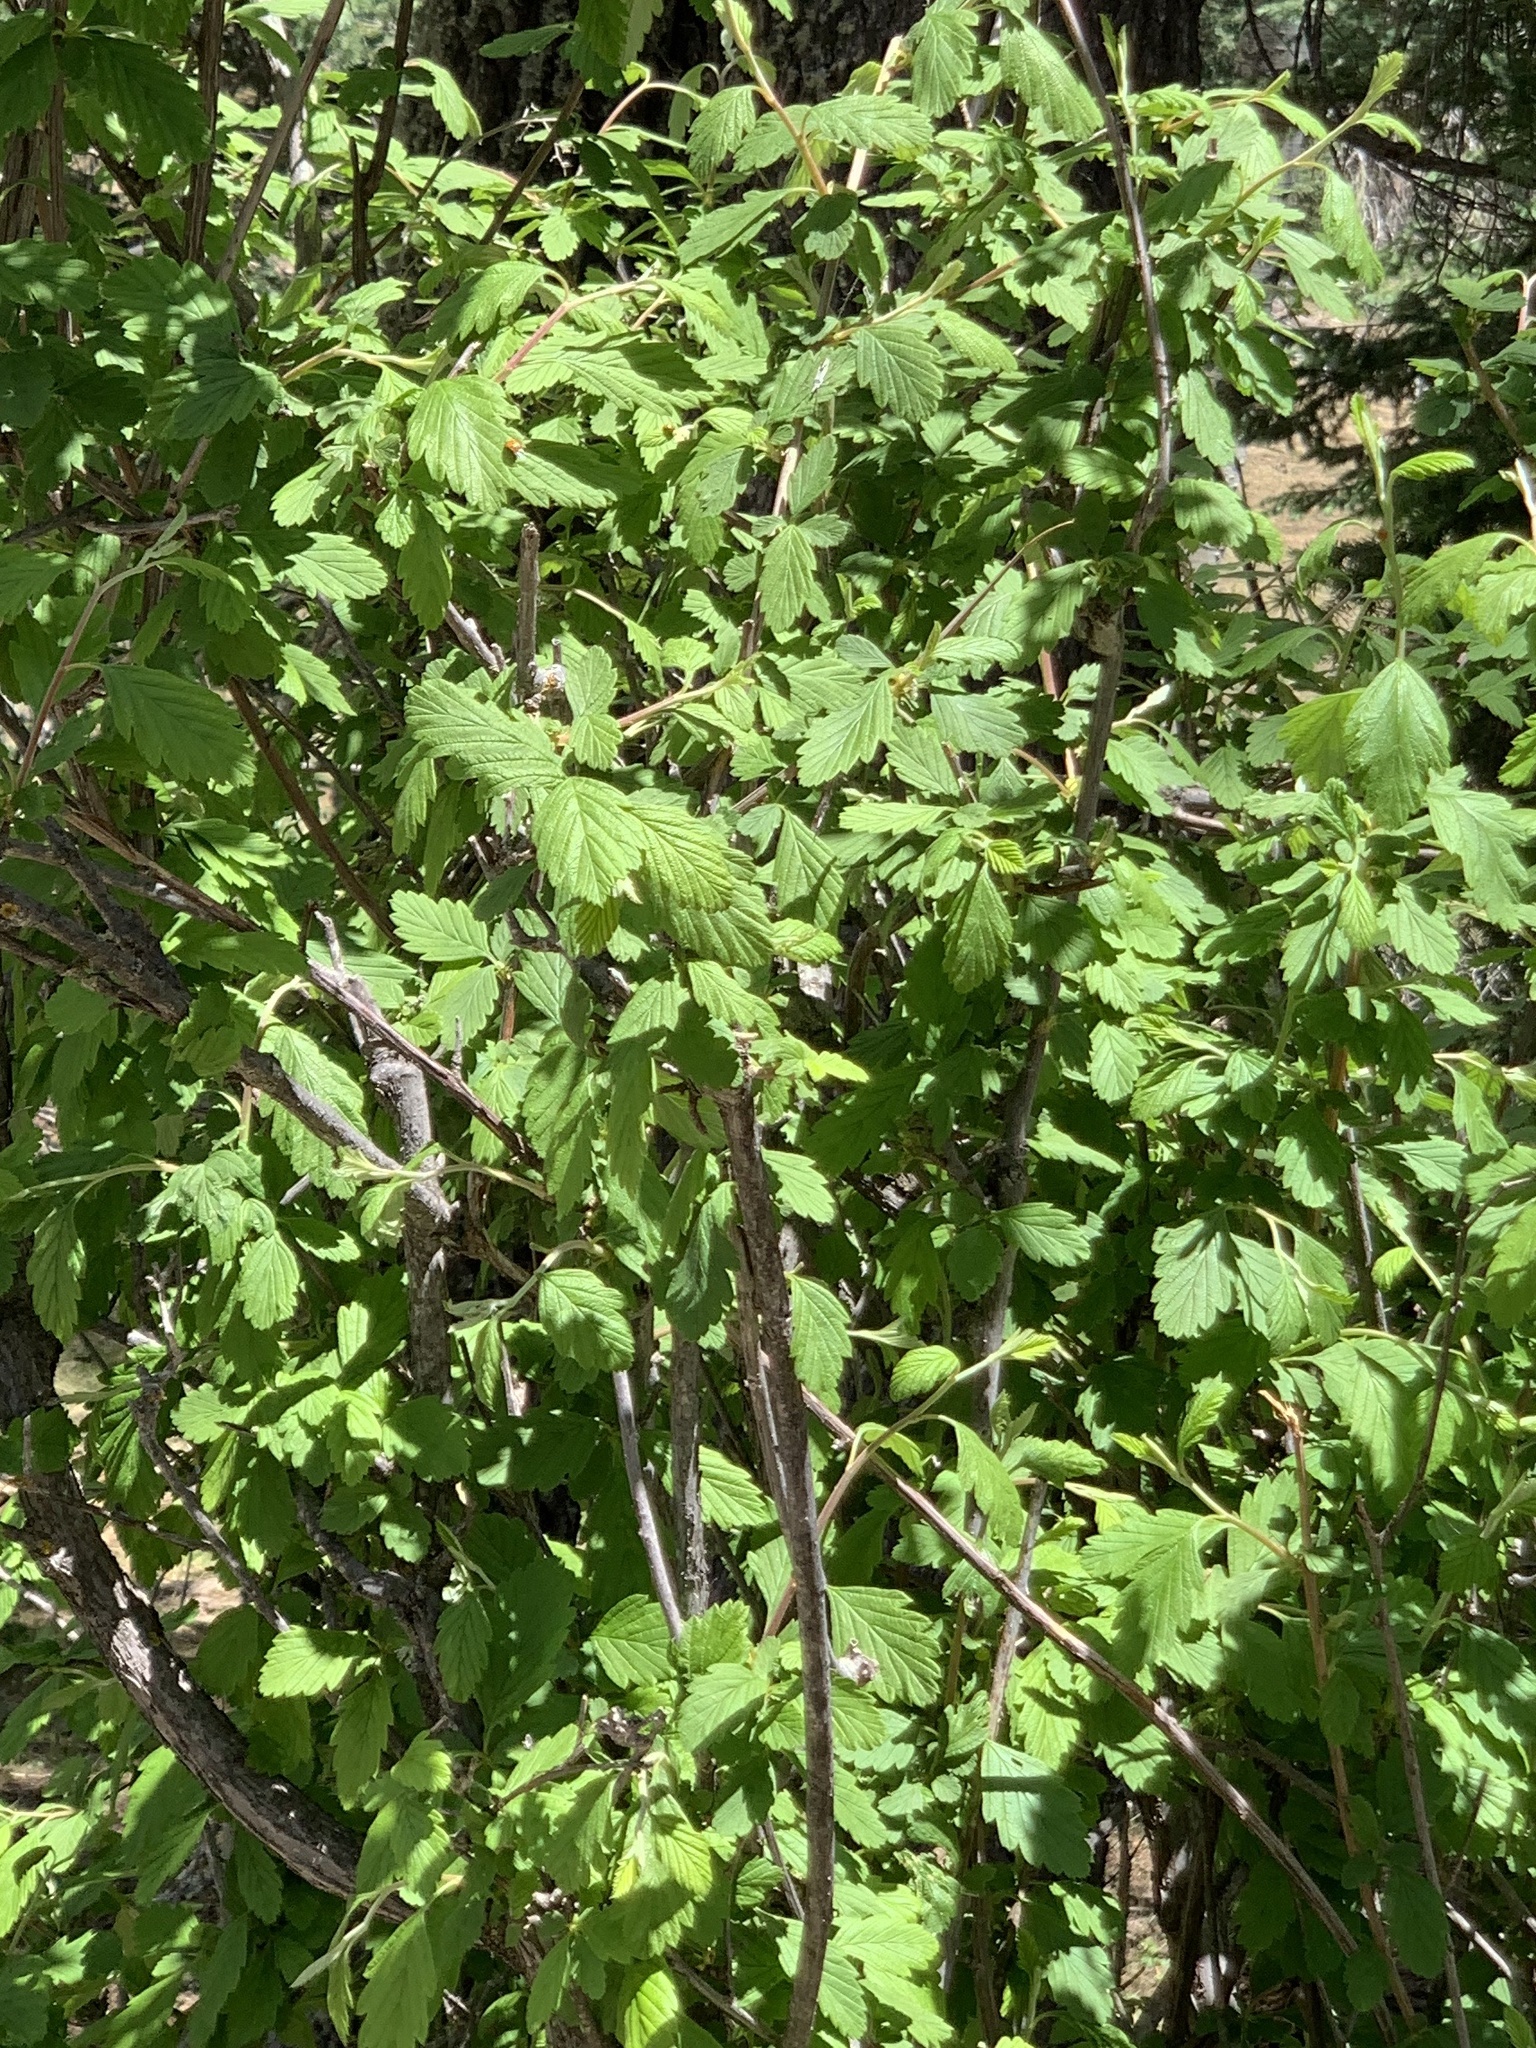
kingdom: Plantae
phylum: Tracheophyta
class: Magnoliopsida
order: Sapindales
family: Sapindaceae
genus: Acer
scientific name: Acer negundo
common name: Ashleaf maple
